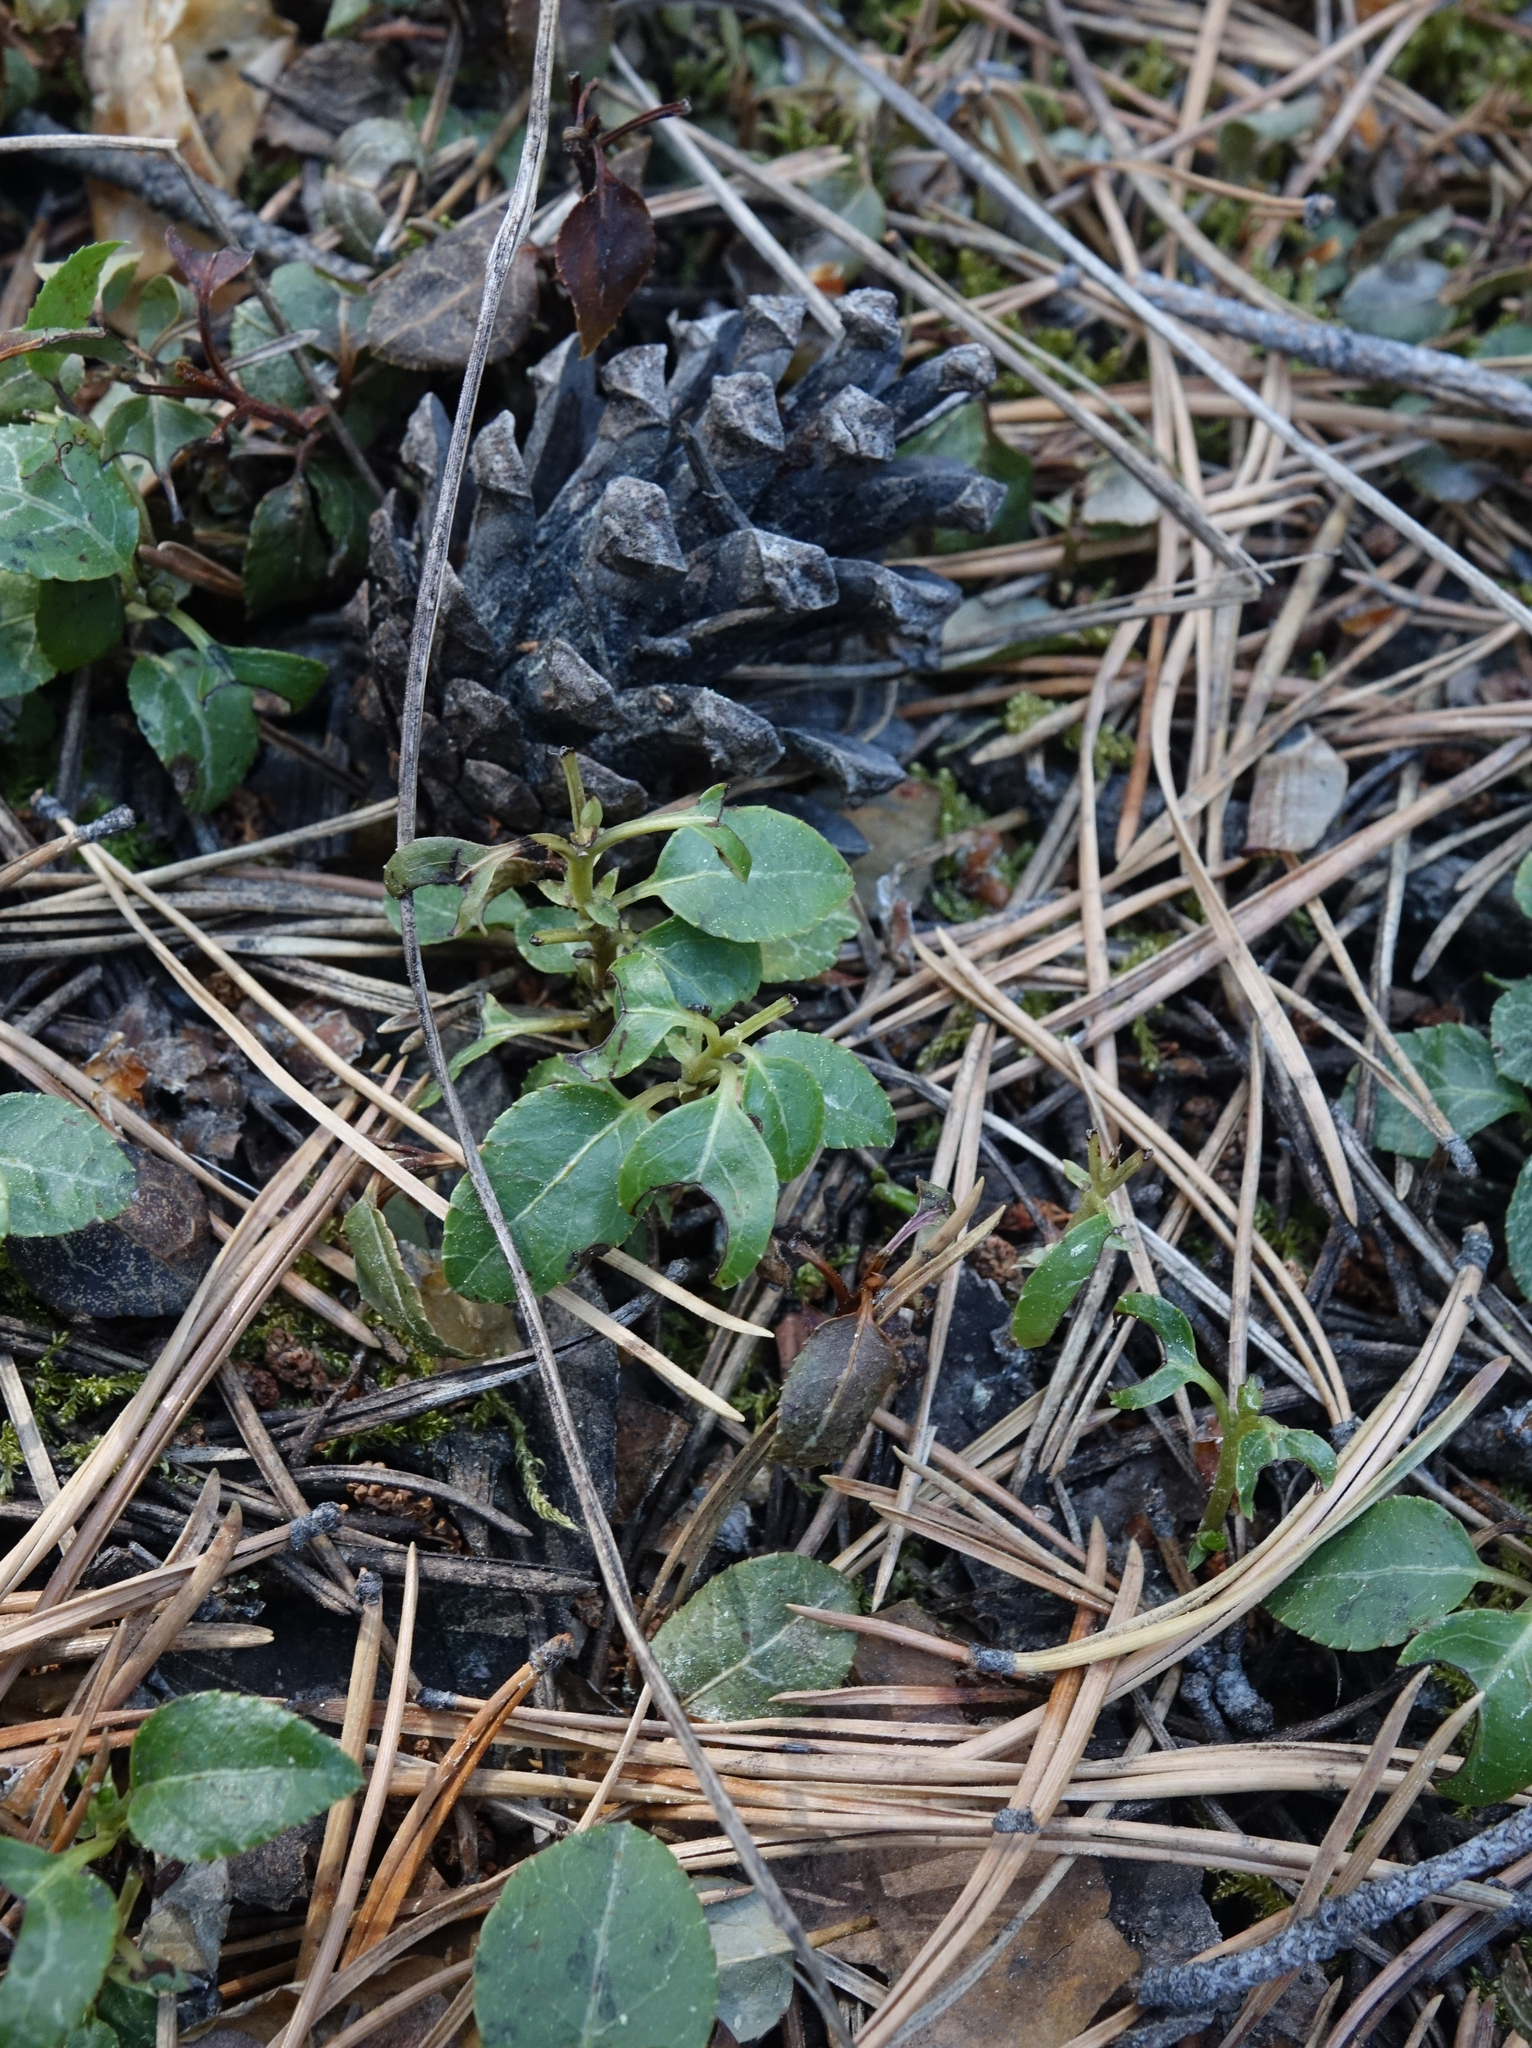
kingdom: Plantae
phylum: Tracheophyta
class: Magnoliopsida
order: Ericales
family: Ericaceae
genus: Orthilia
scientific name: Orthilia secunda
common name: One-sided orthilia
